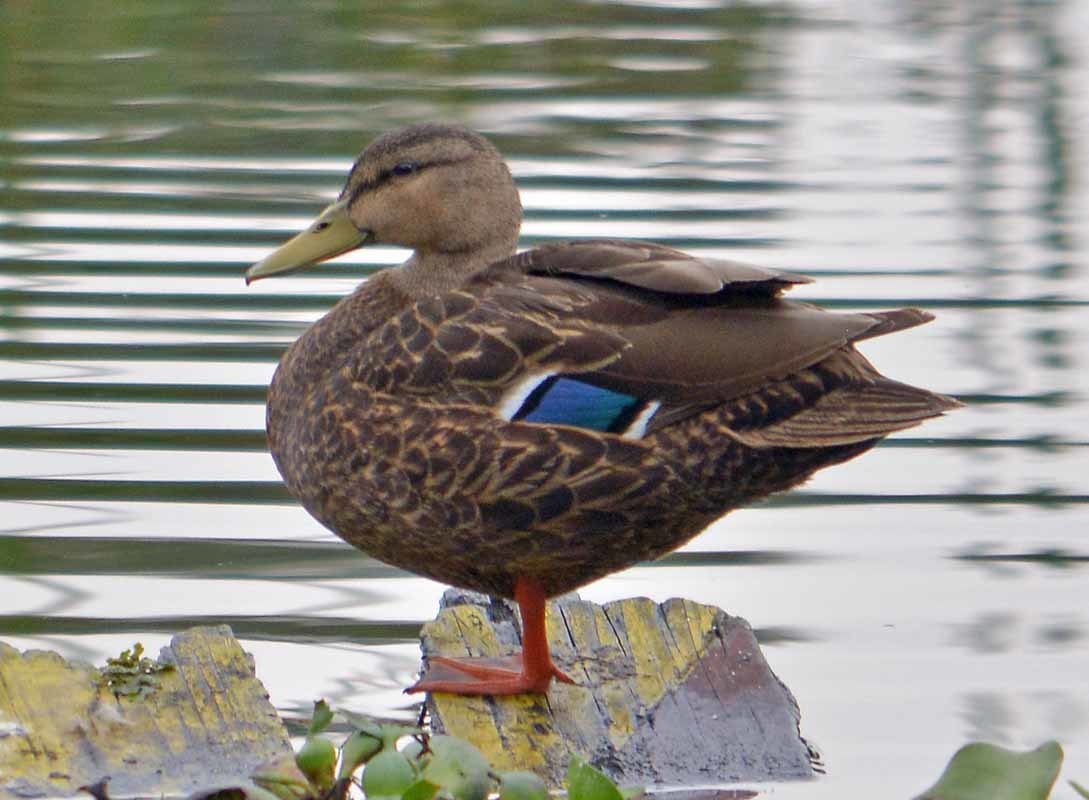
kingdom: Animalia
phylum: Chordata
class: Aves
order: Anseriformes
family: Anatidae
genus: Anas
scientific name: Anas diazi
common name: Mexican duck
